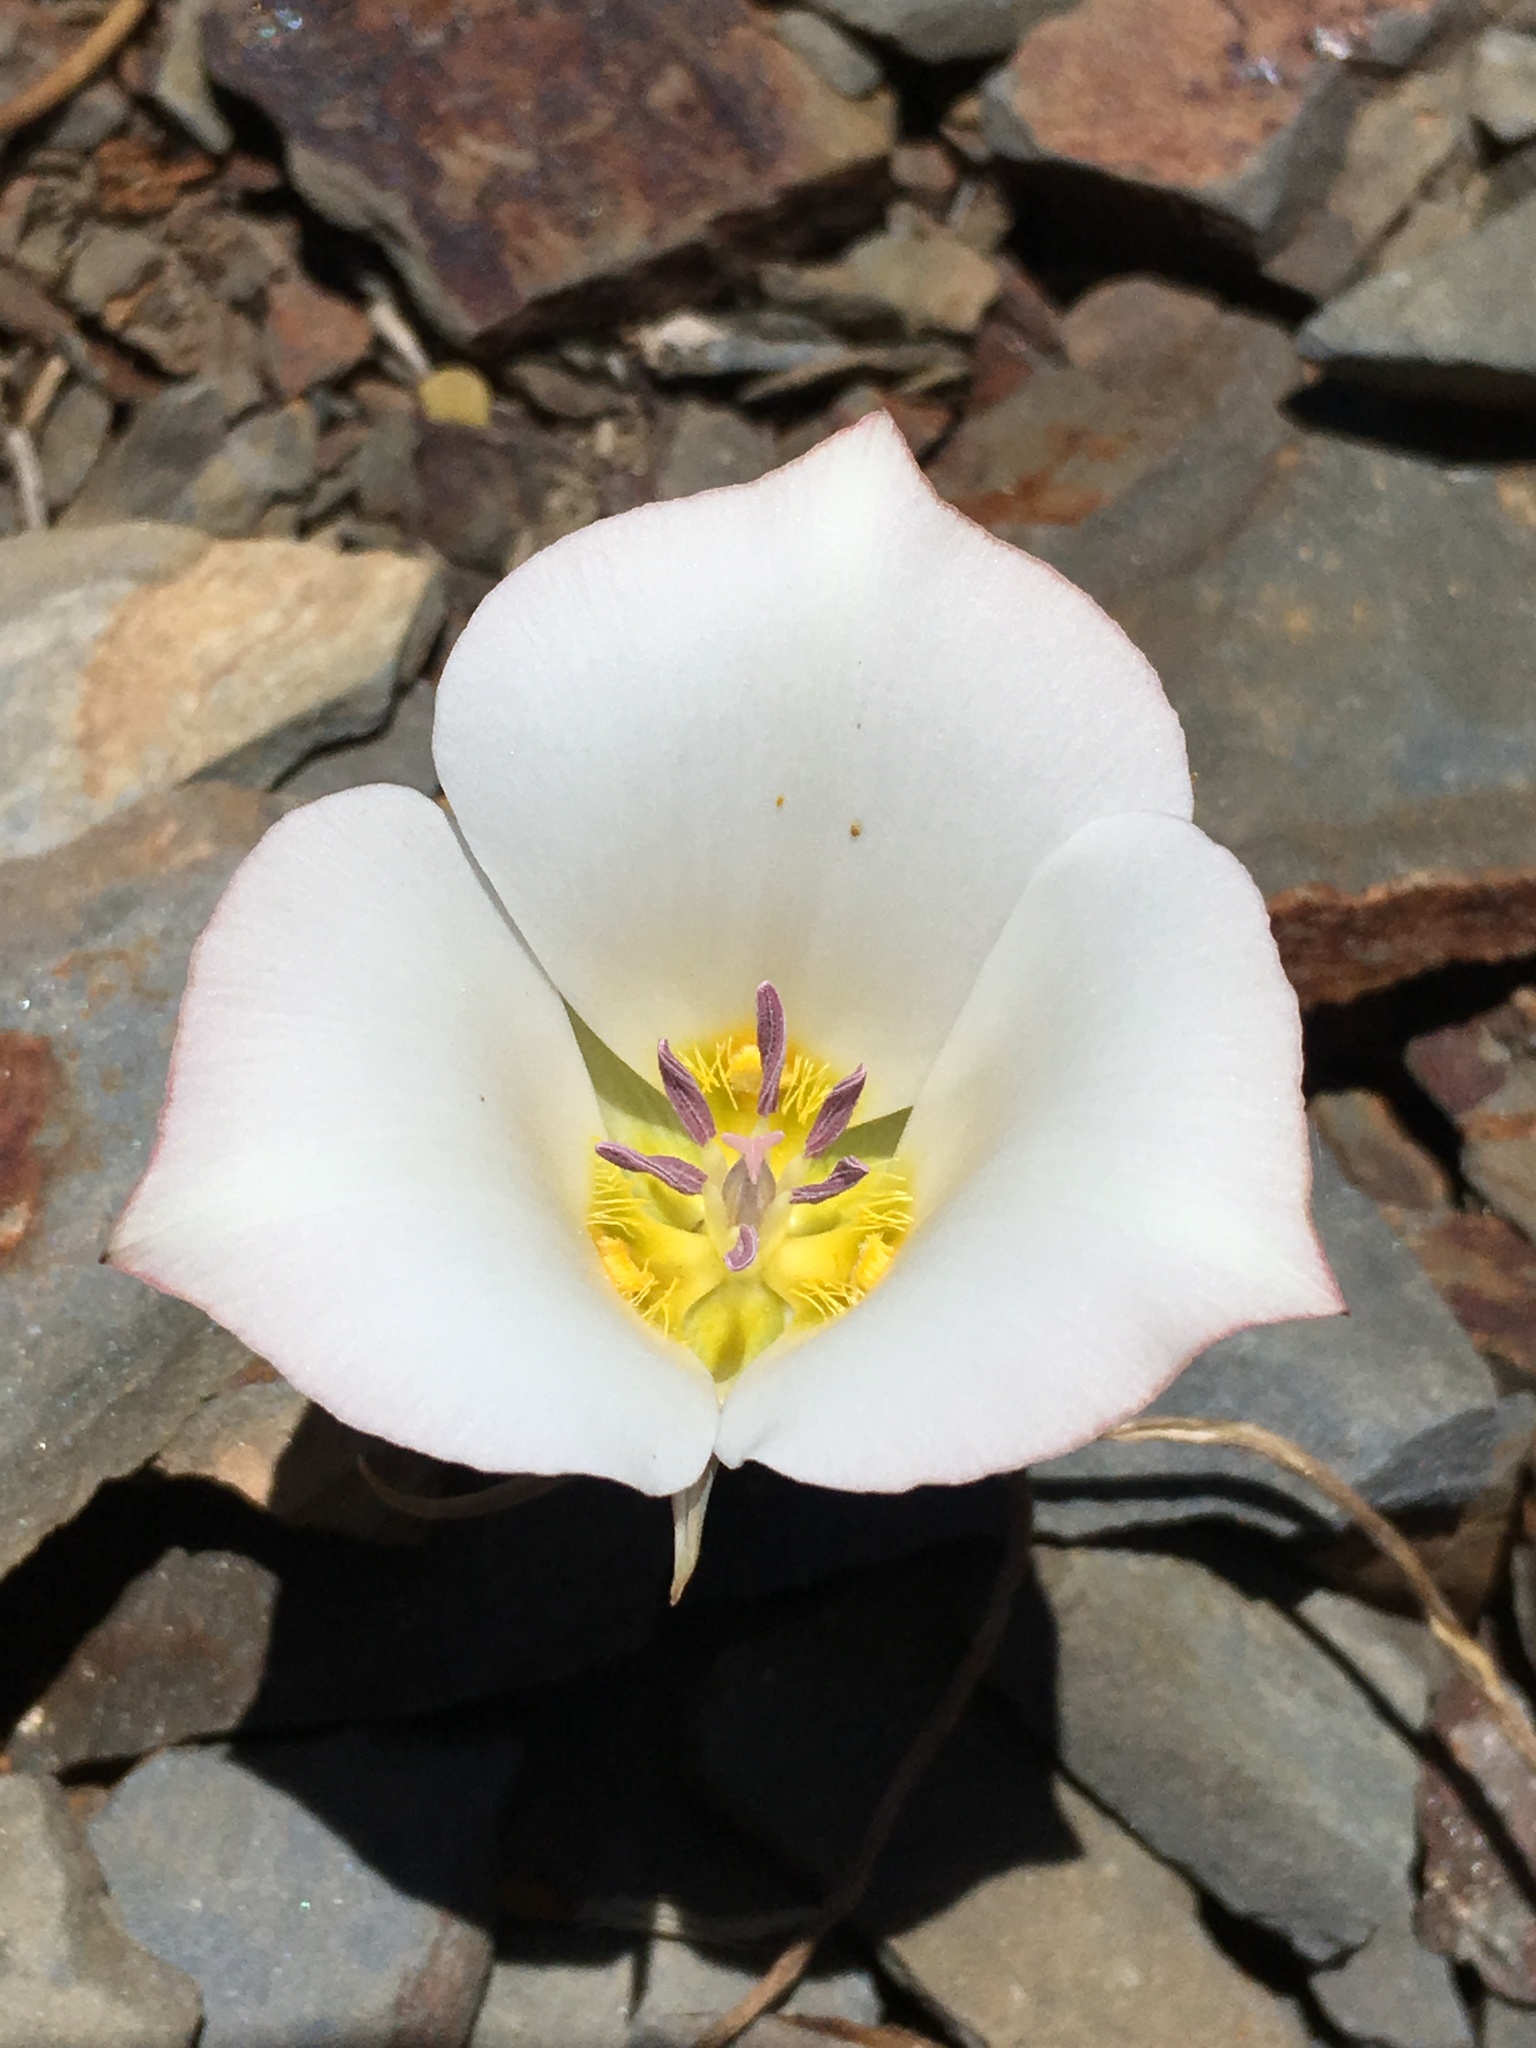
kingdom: Plantae
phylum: Tracheophyta
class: Liliopsida
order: Liliales
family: Liliaceae
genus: Calochortus
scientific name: Calochortus panamintensis
